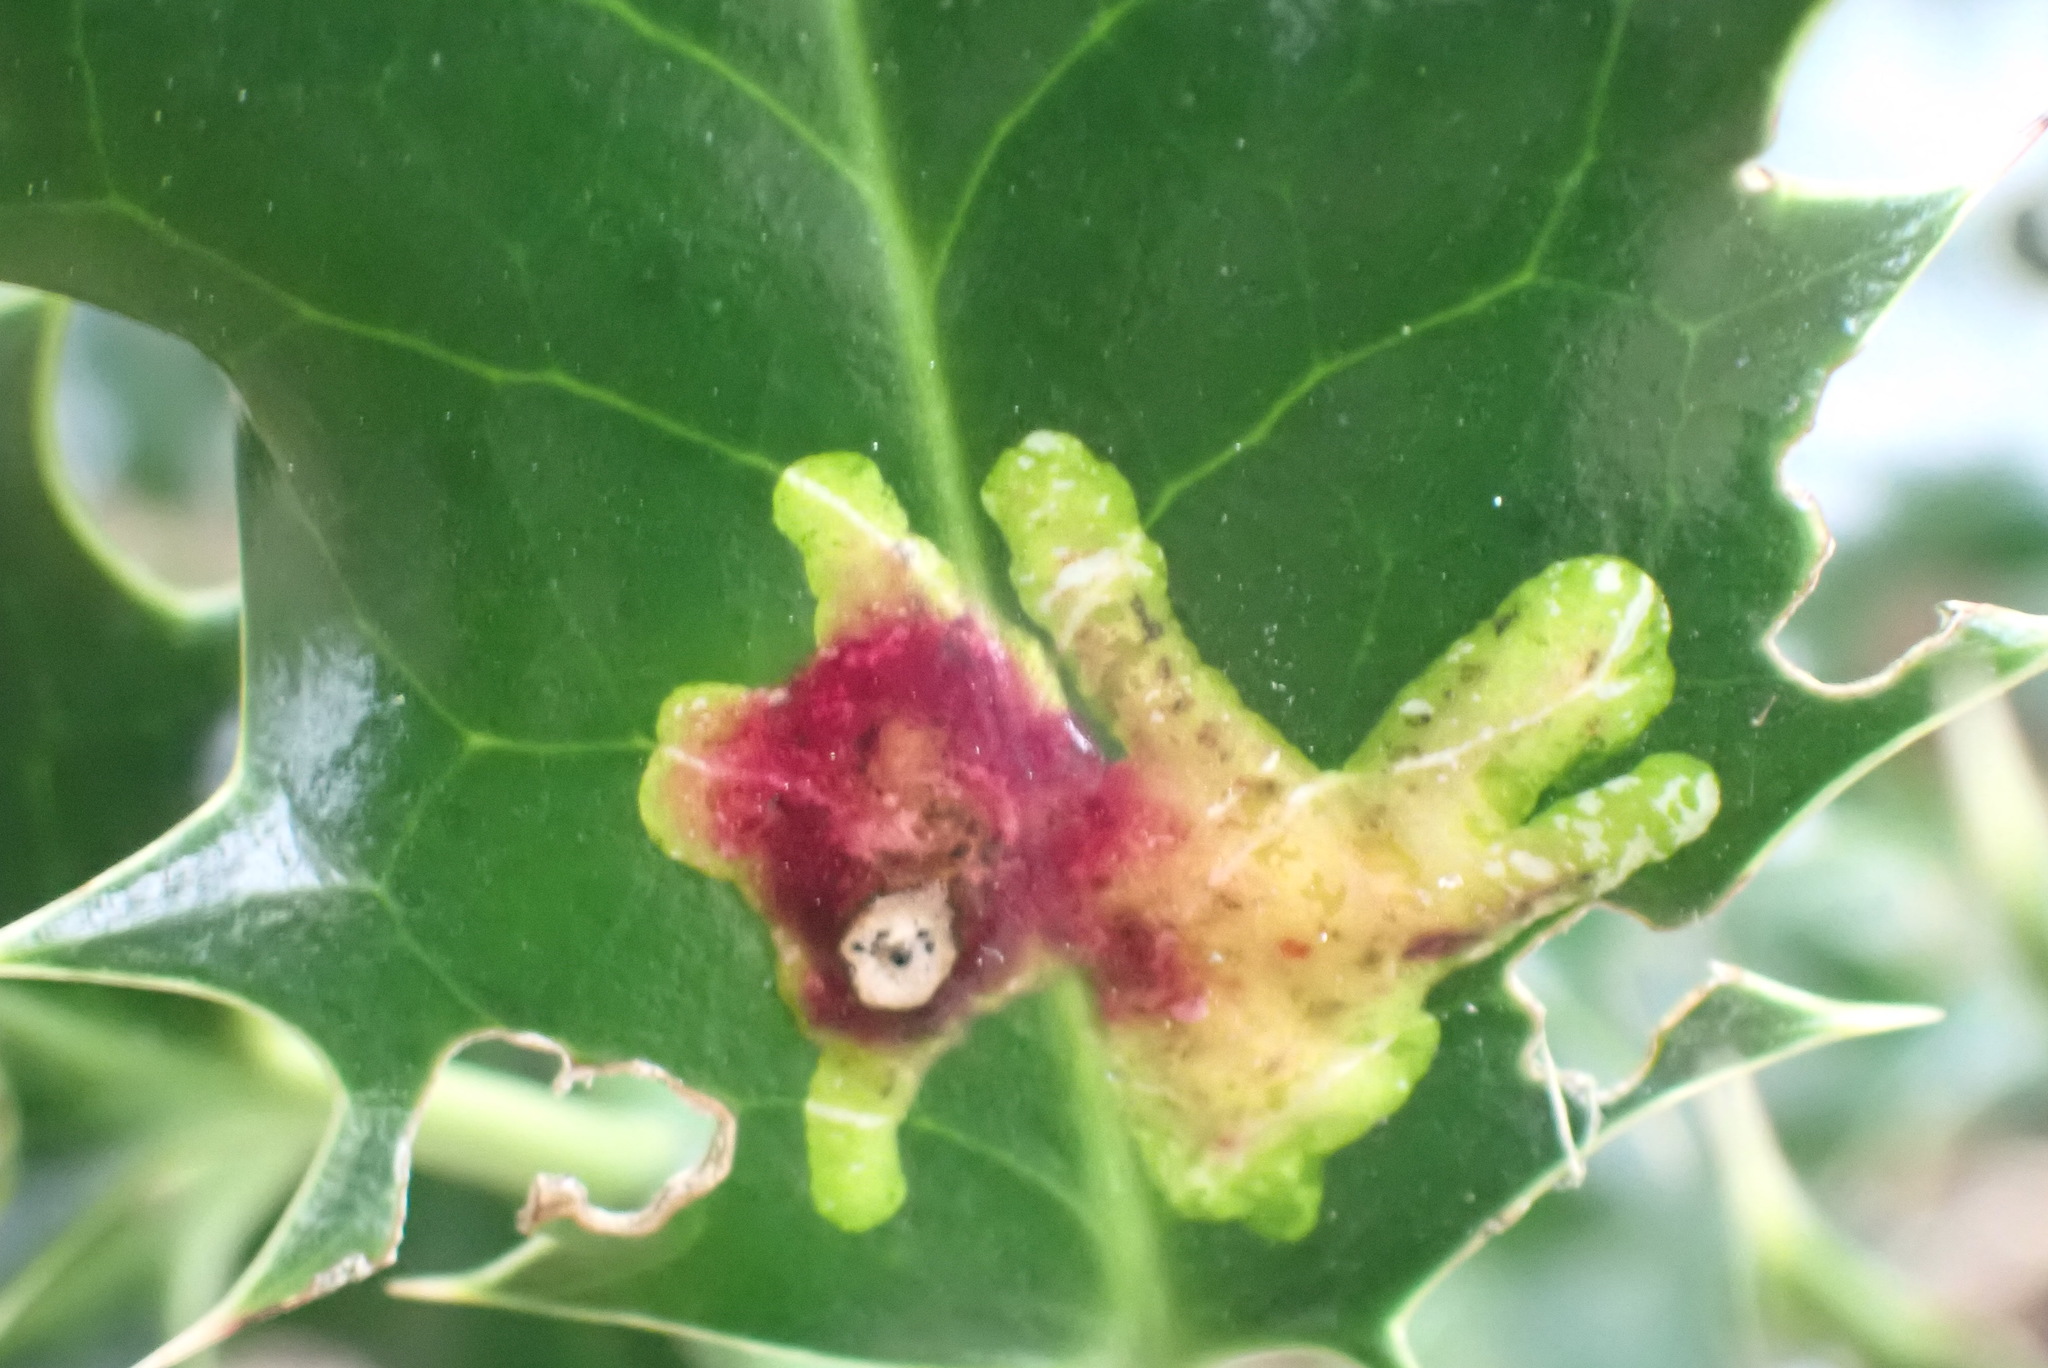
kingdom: Animalia
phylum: Arthropoda
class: Insecta
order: Diptera
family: Agromyzidae
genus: Phytomyza
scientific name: Phytomyza ilicis
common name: Holly leafminer
